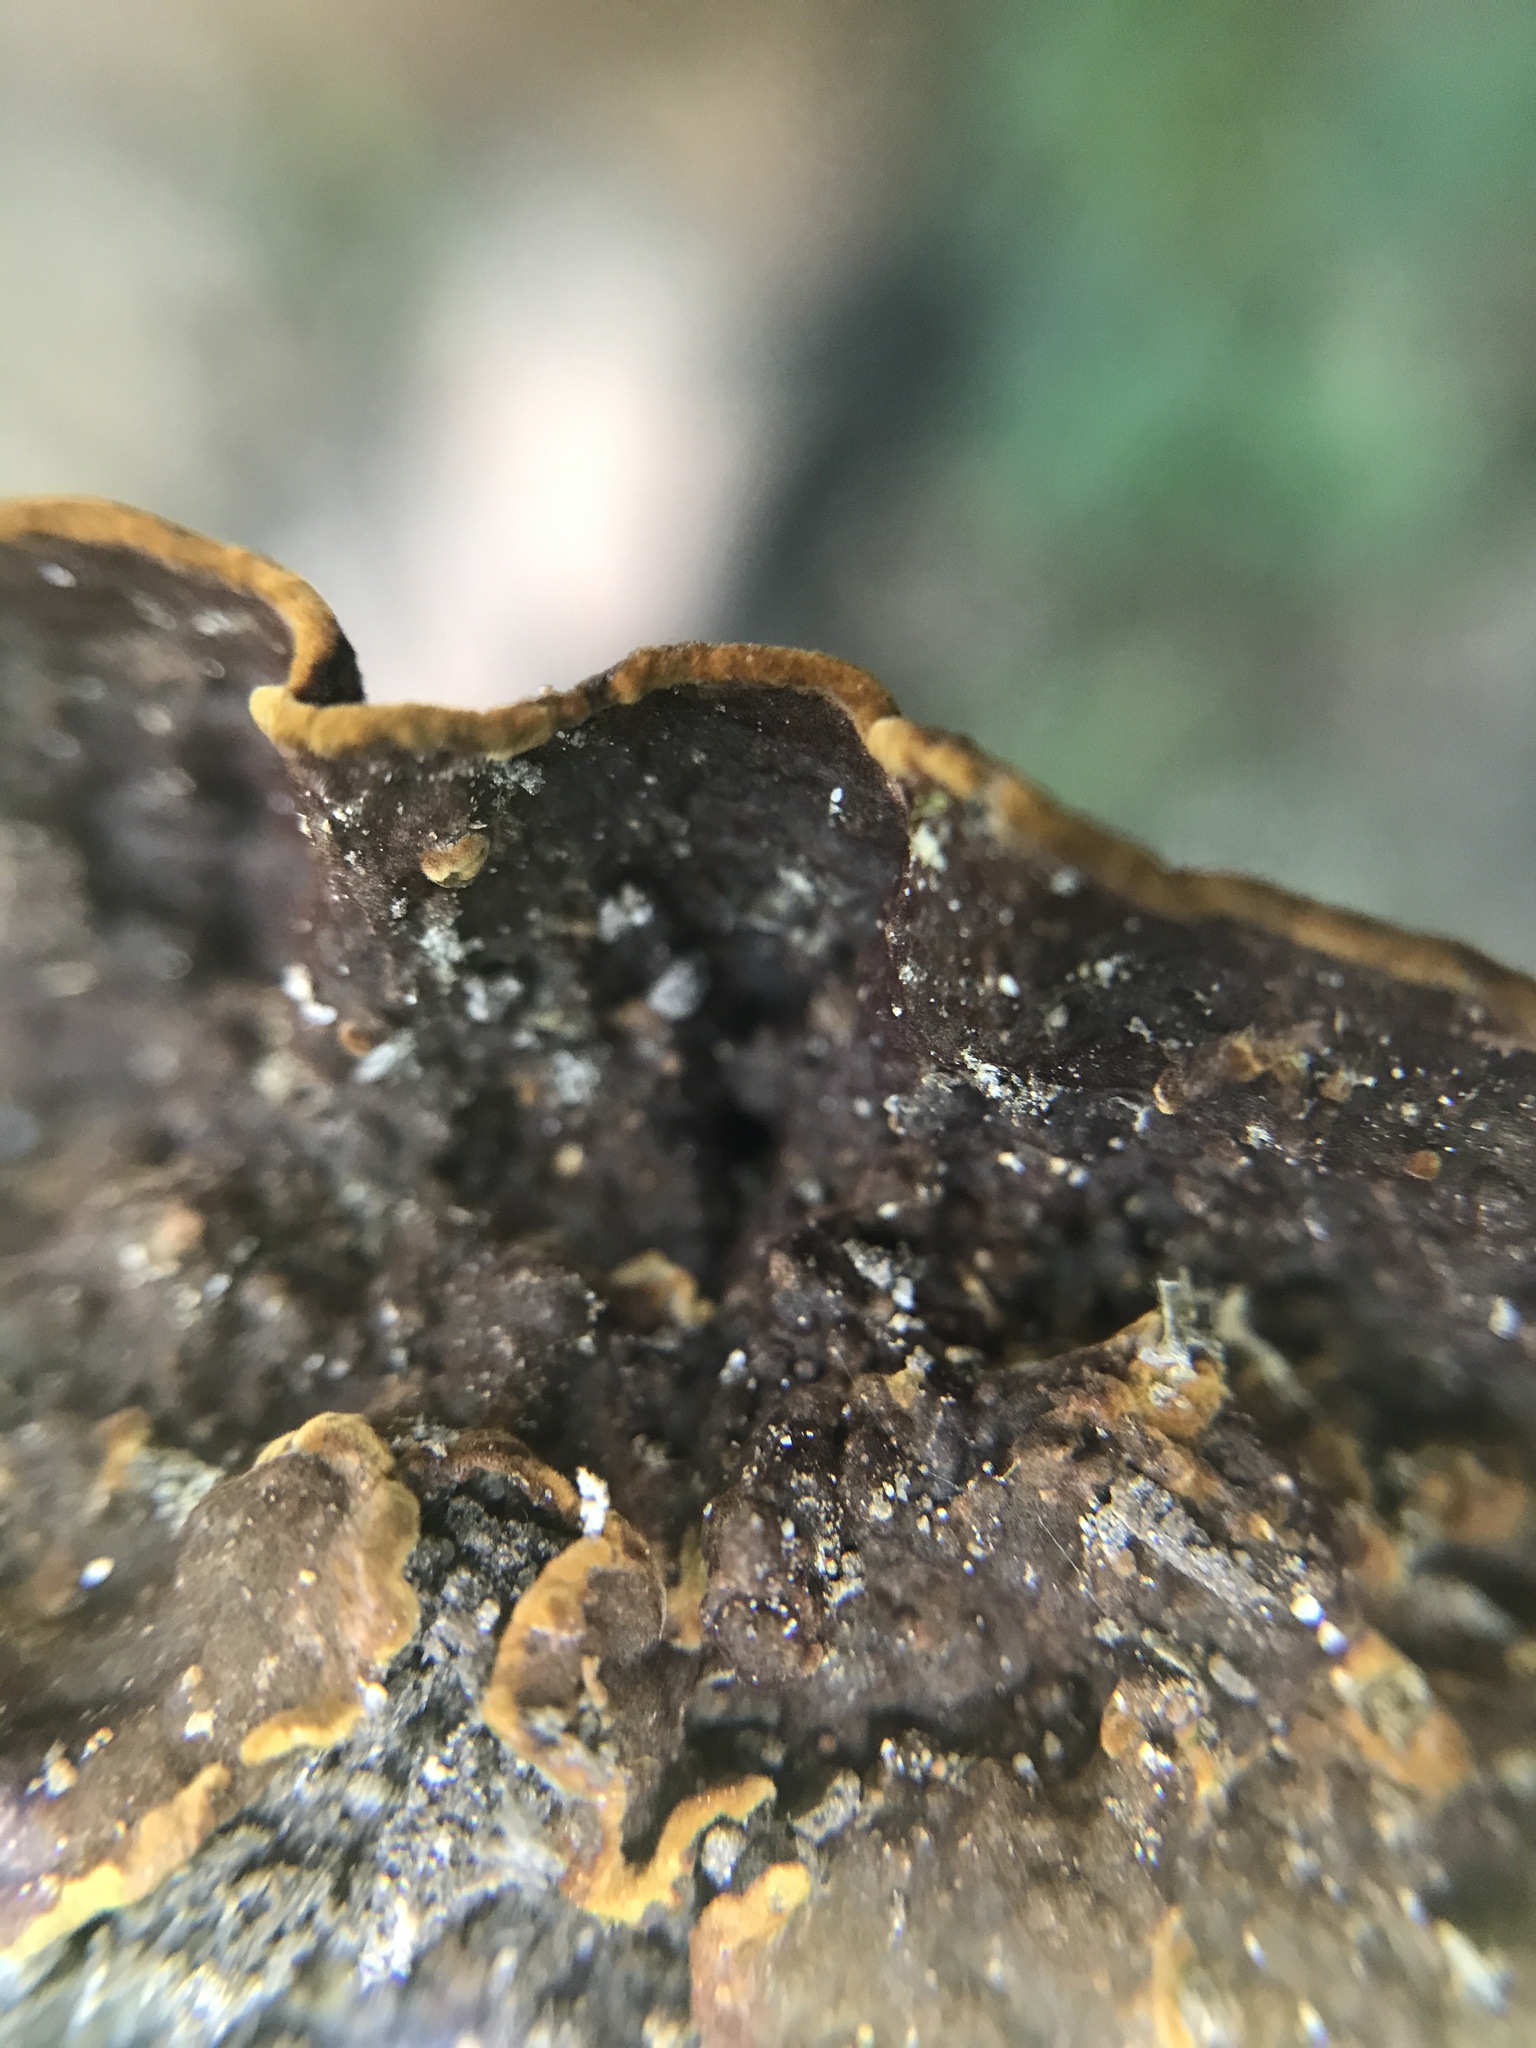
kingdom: Fungi
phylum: Basidiomycota
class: Agaricomycetes
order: Hymenochaetales
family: Hymenochaetaceae
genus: Hymenochaete
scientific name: Hymenochaete rubiginosa
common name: Oak curtain crust
